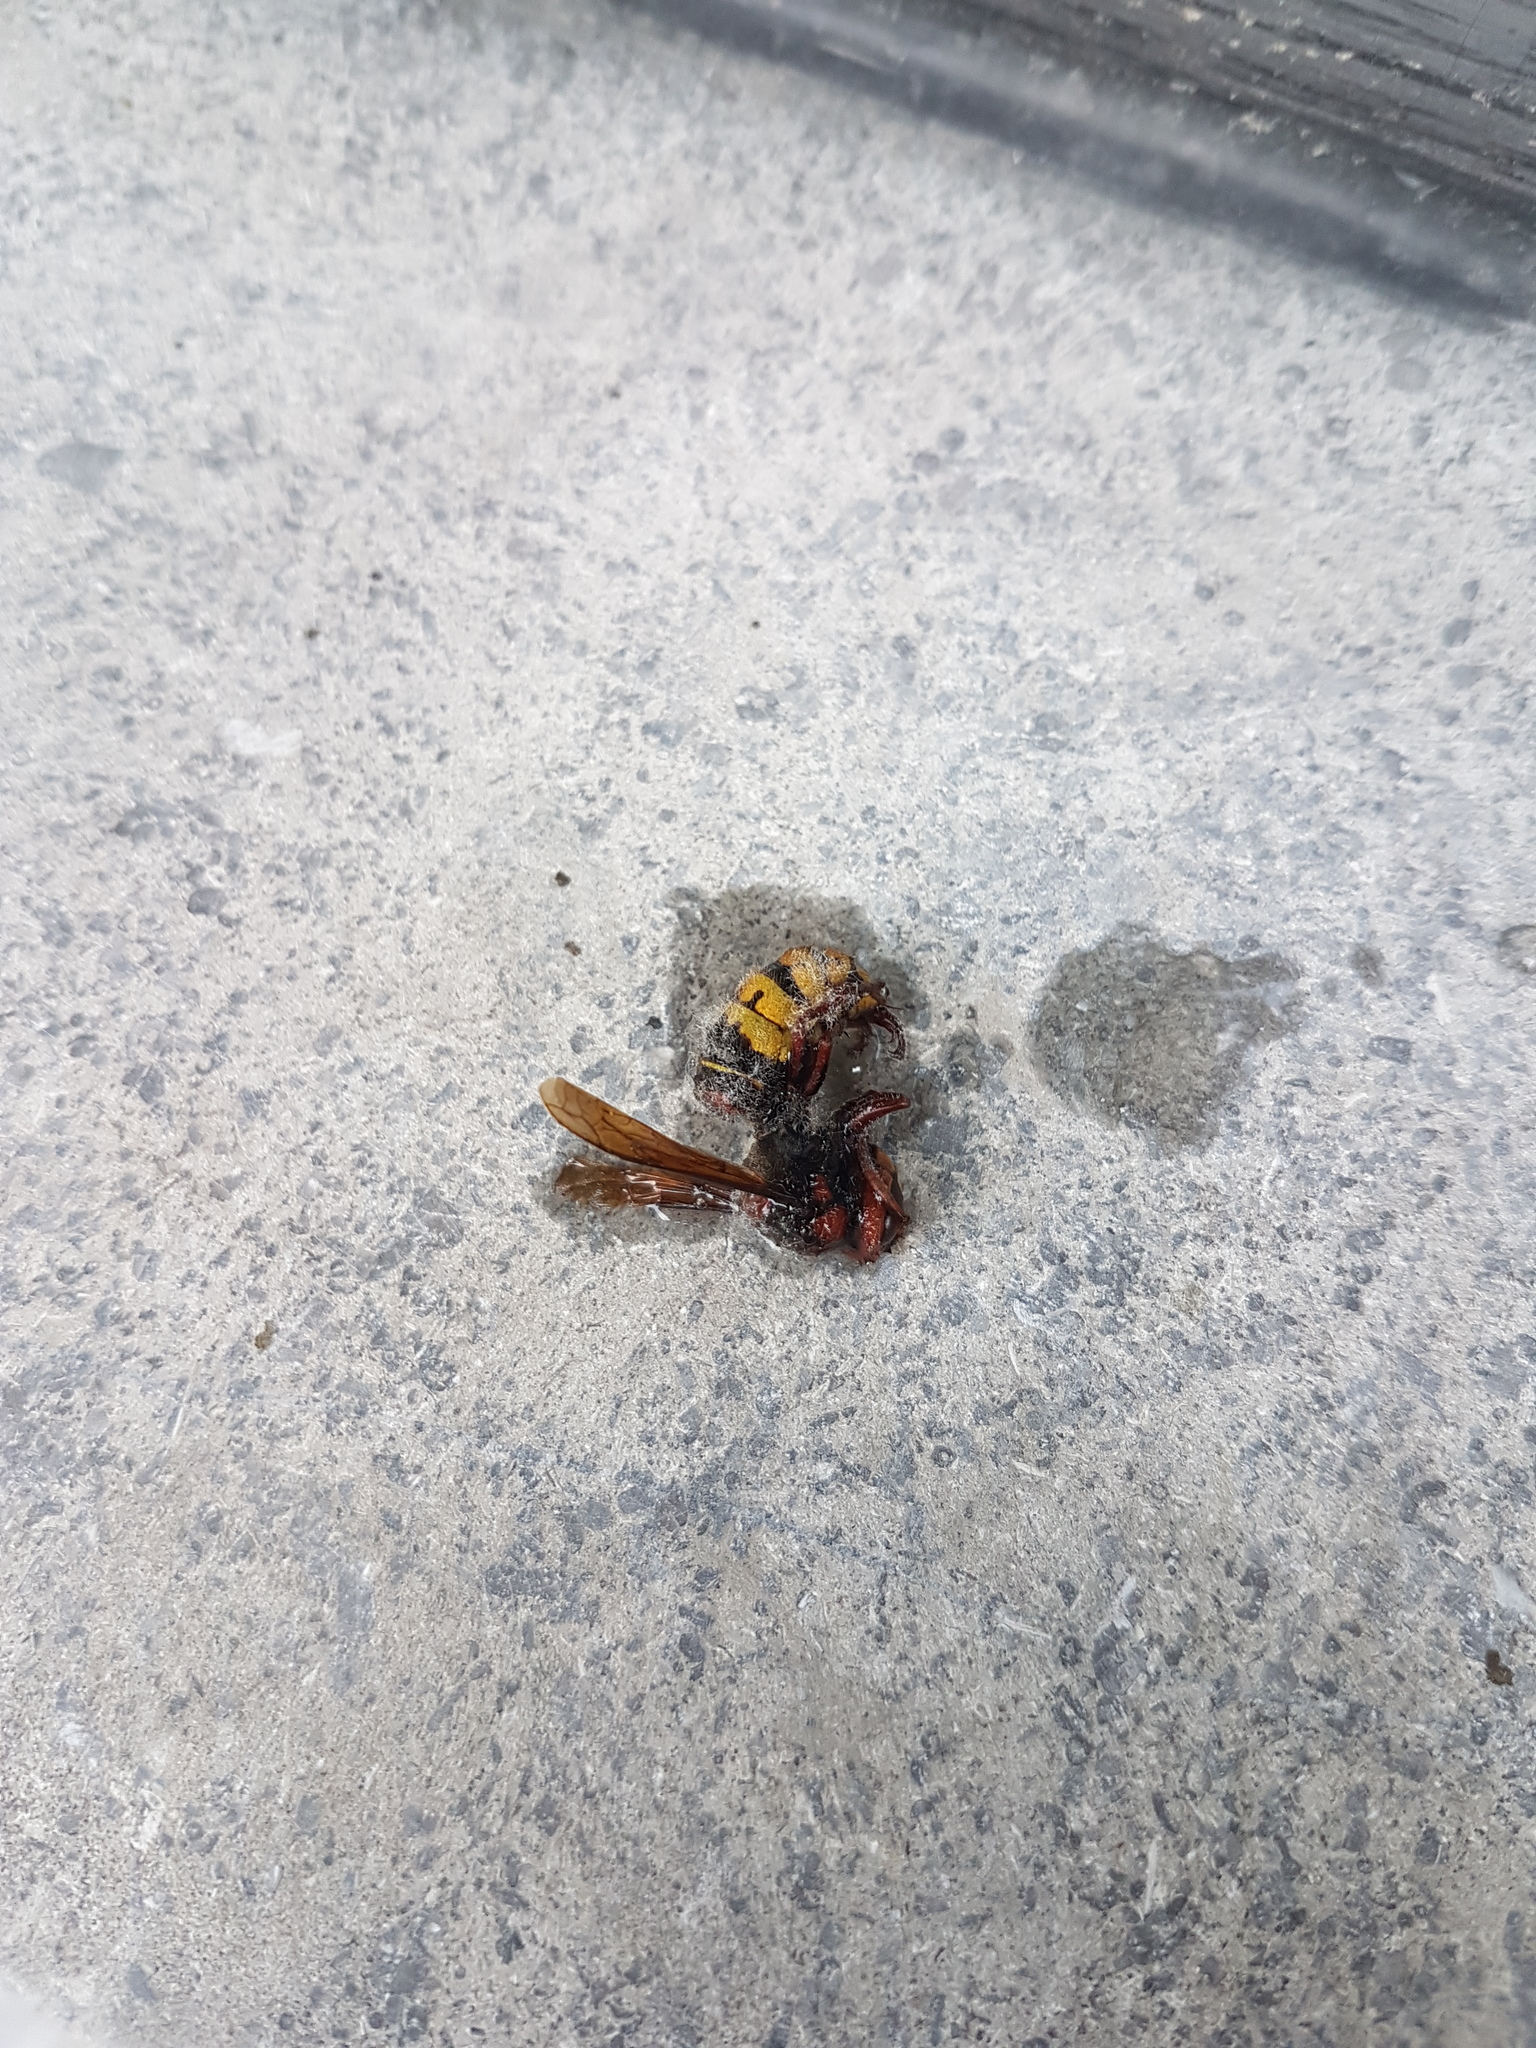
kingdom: Animalia
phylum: Arthropoda
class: Insecta
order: Hymenoptera
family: Vespidae
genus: Vespa
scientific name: Vespa crabro
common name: Hornet
